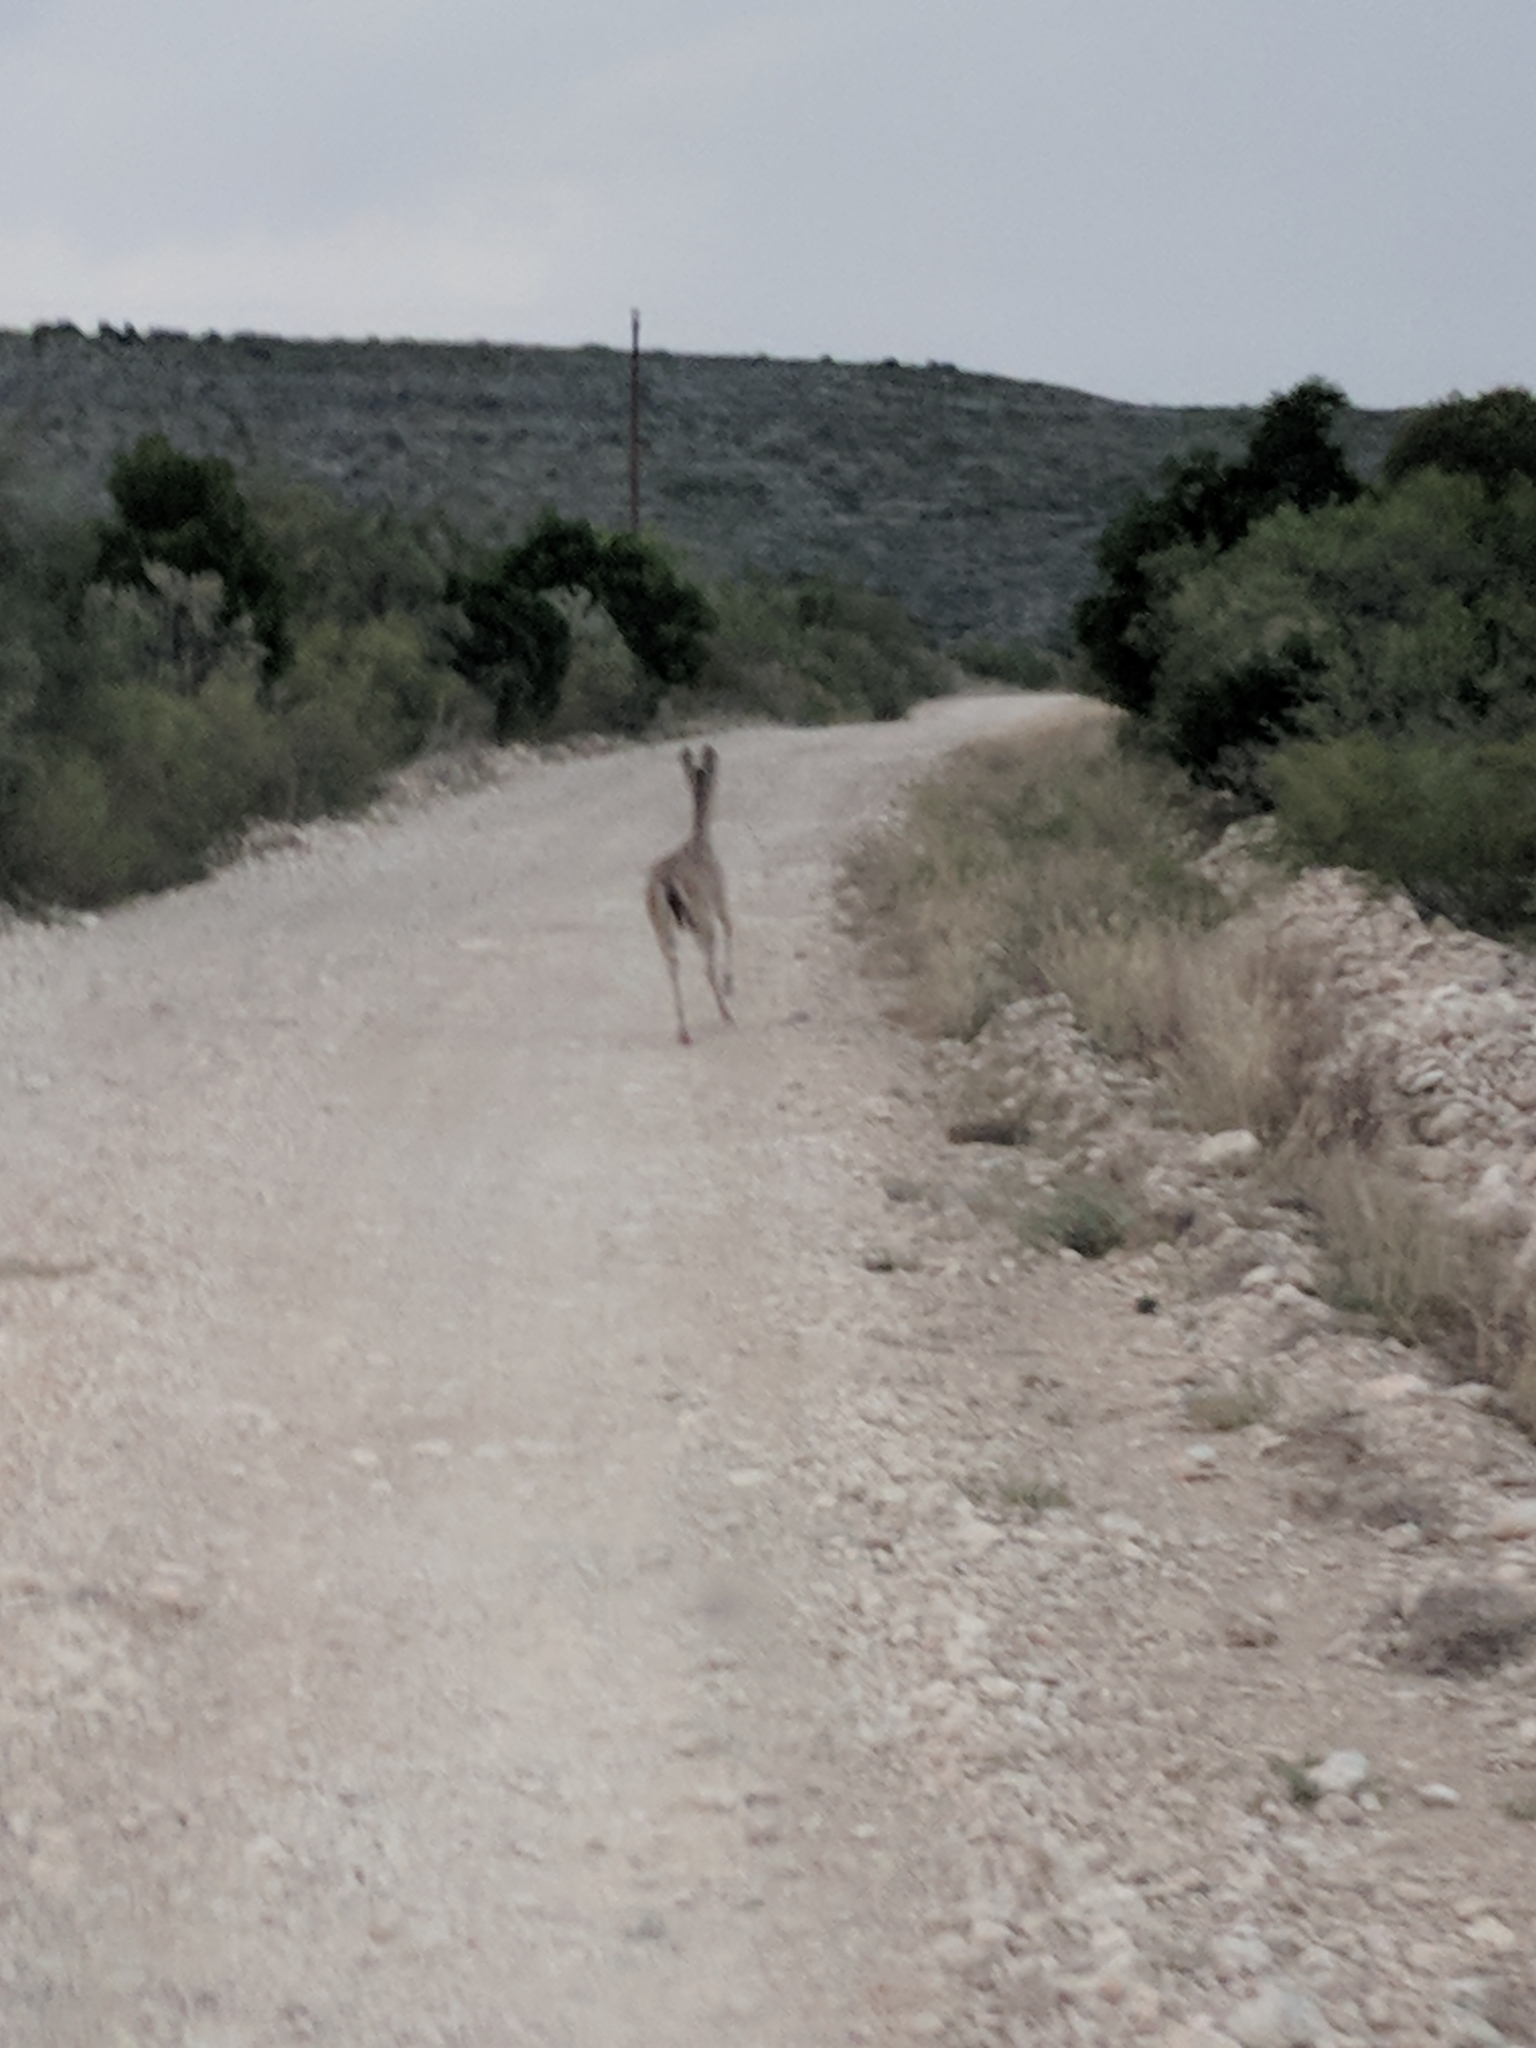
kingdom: Animalia
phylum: Chordata
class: Mammalia
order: Artiodactyla
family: Cervidae
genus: Odocoileus
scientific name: Odocoileus virginianus
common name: White-tailed deer
